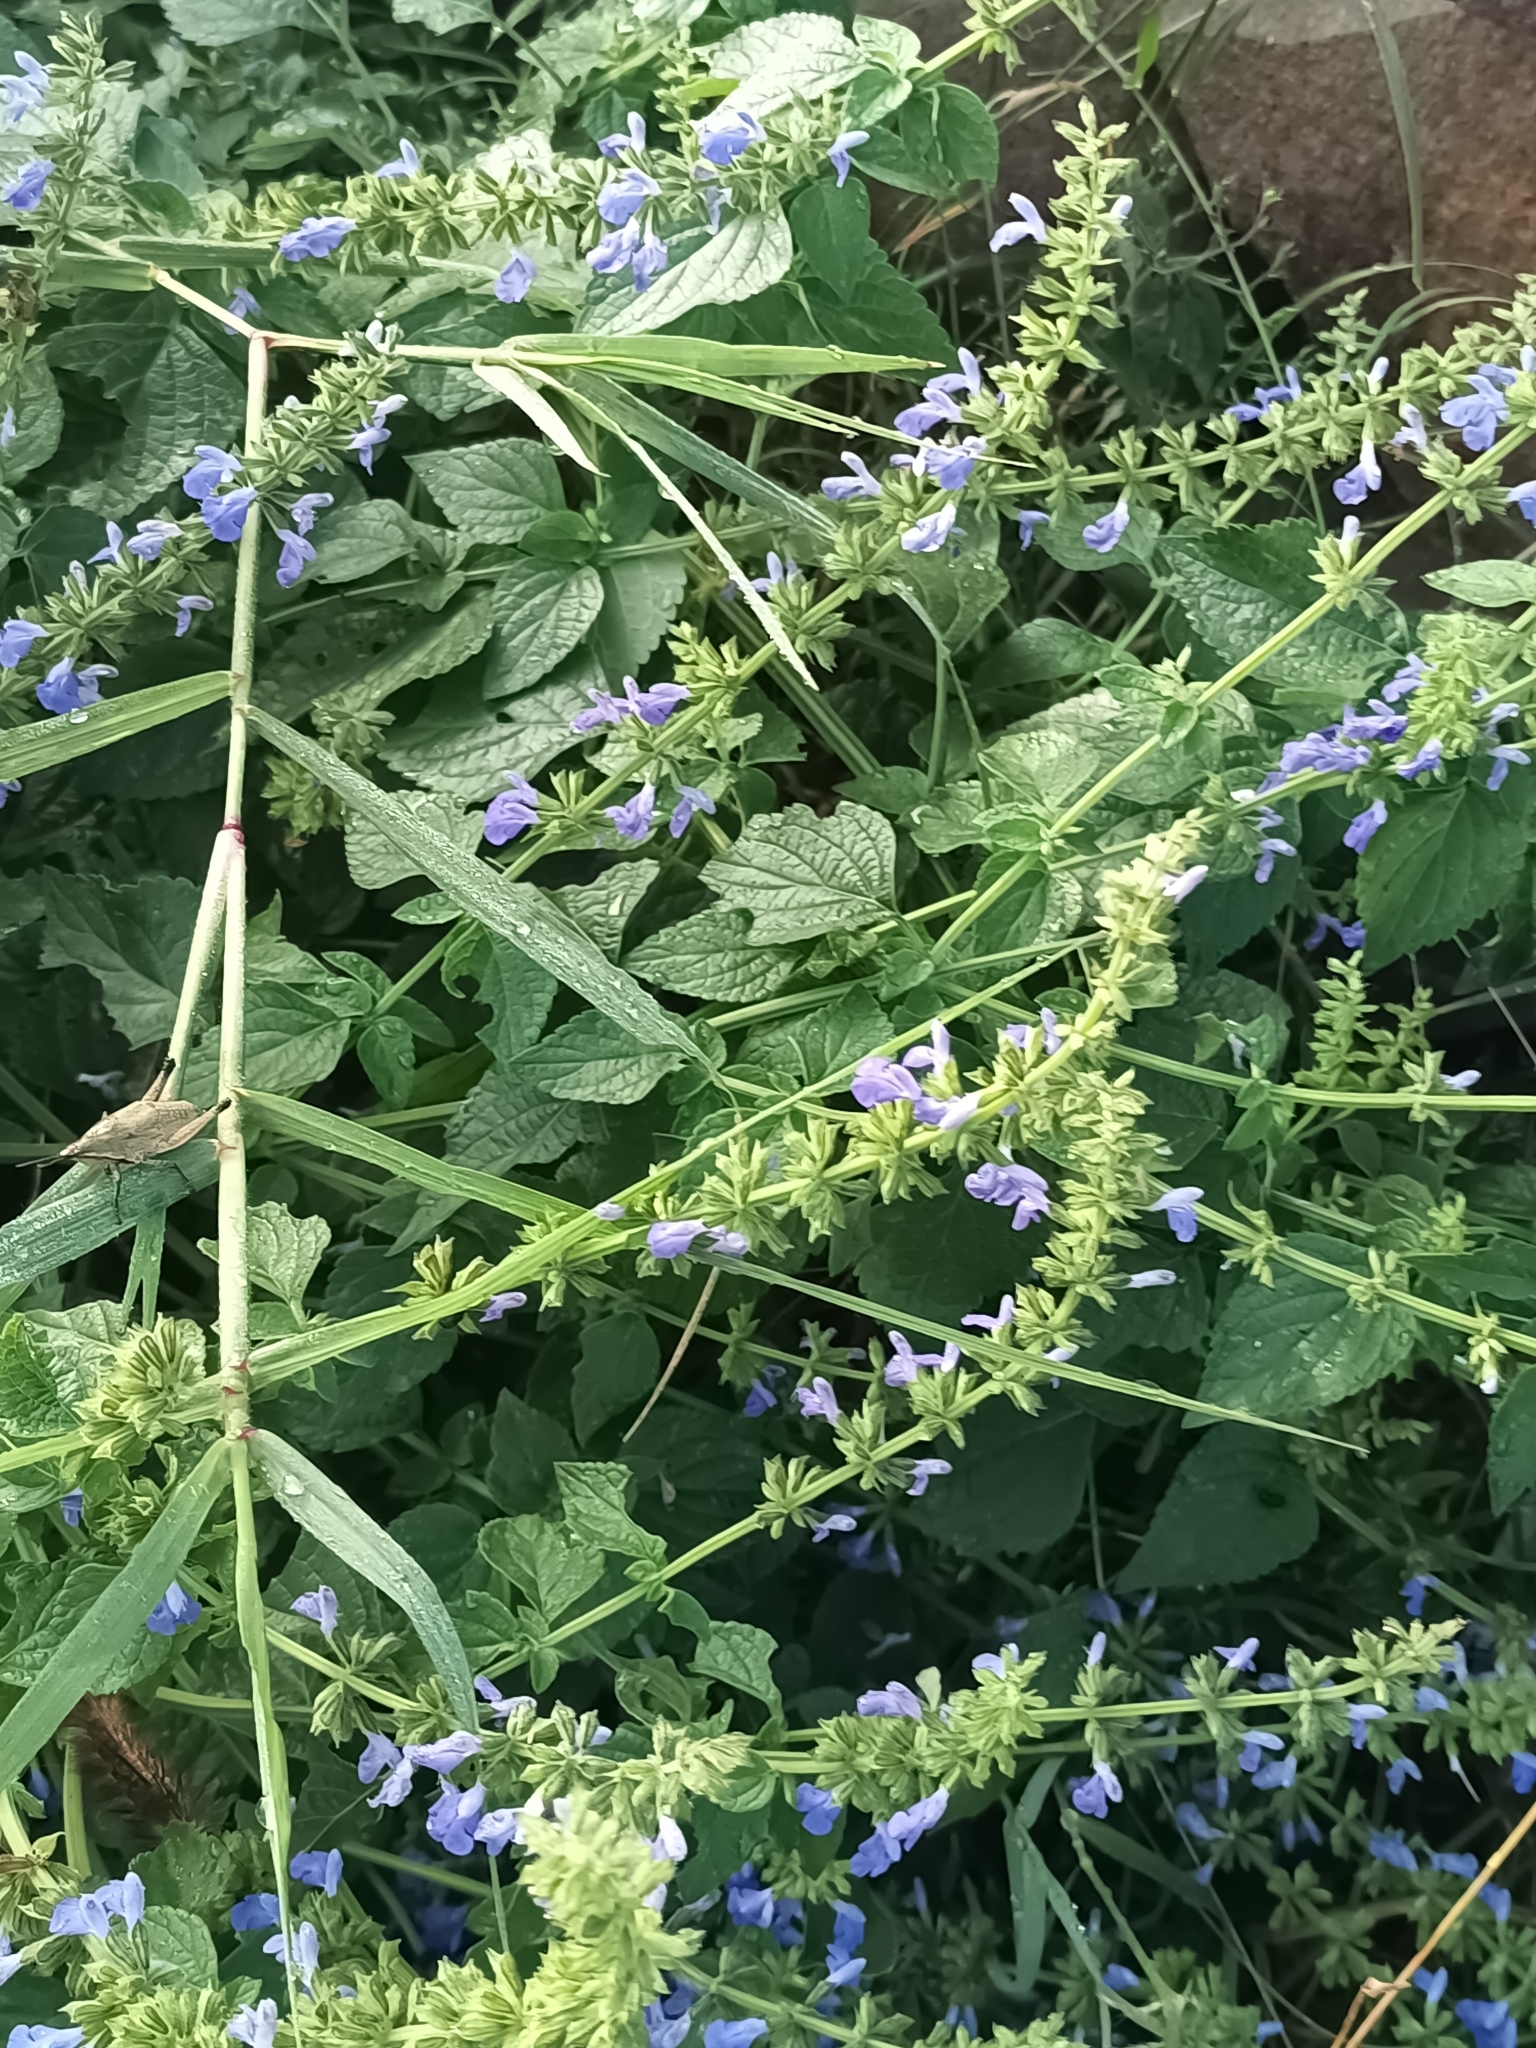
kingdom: Plantae
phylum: Tracheophyta
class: Magnoliopsida
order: Lamiales
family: Lamiaceae
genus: Salvia
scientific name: Salvia longispicata
